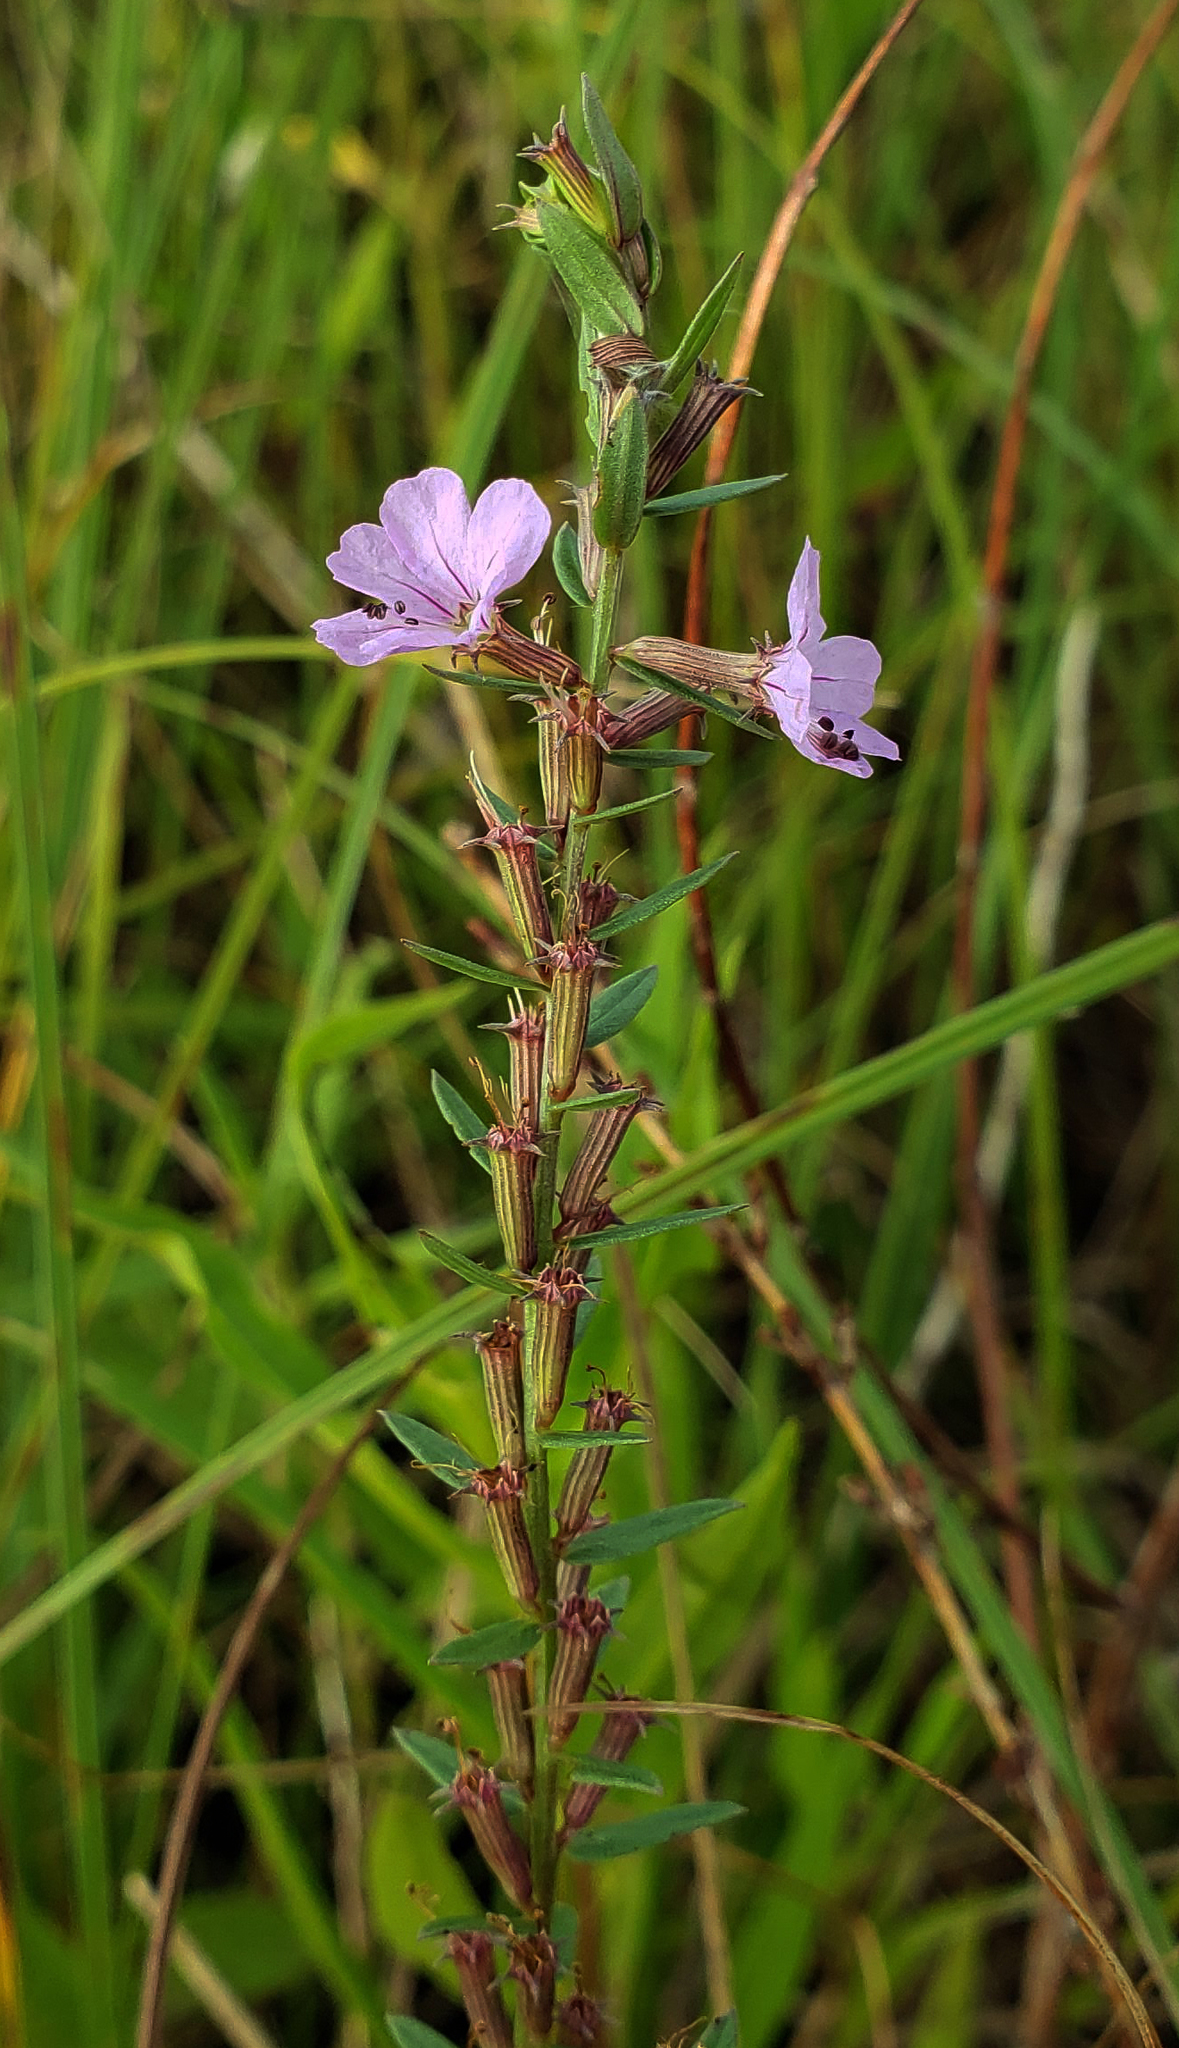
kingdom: Plantae
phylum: Tracheophyta
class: Magnoliopsida
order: Myrtales
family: Lythraceae
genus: Lythrum
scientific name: Lythrum alatum
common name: Winged loosestrife
